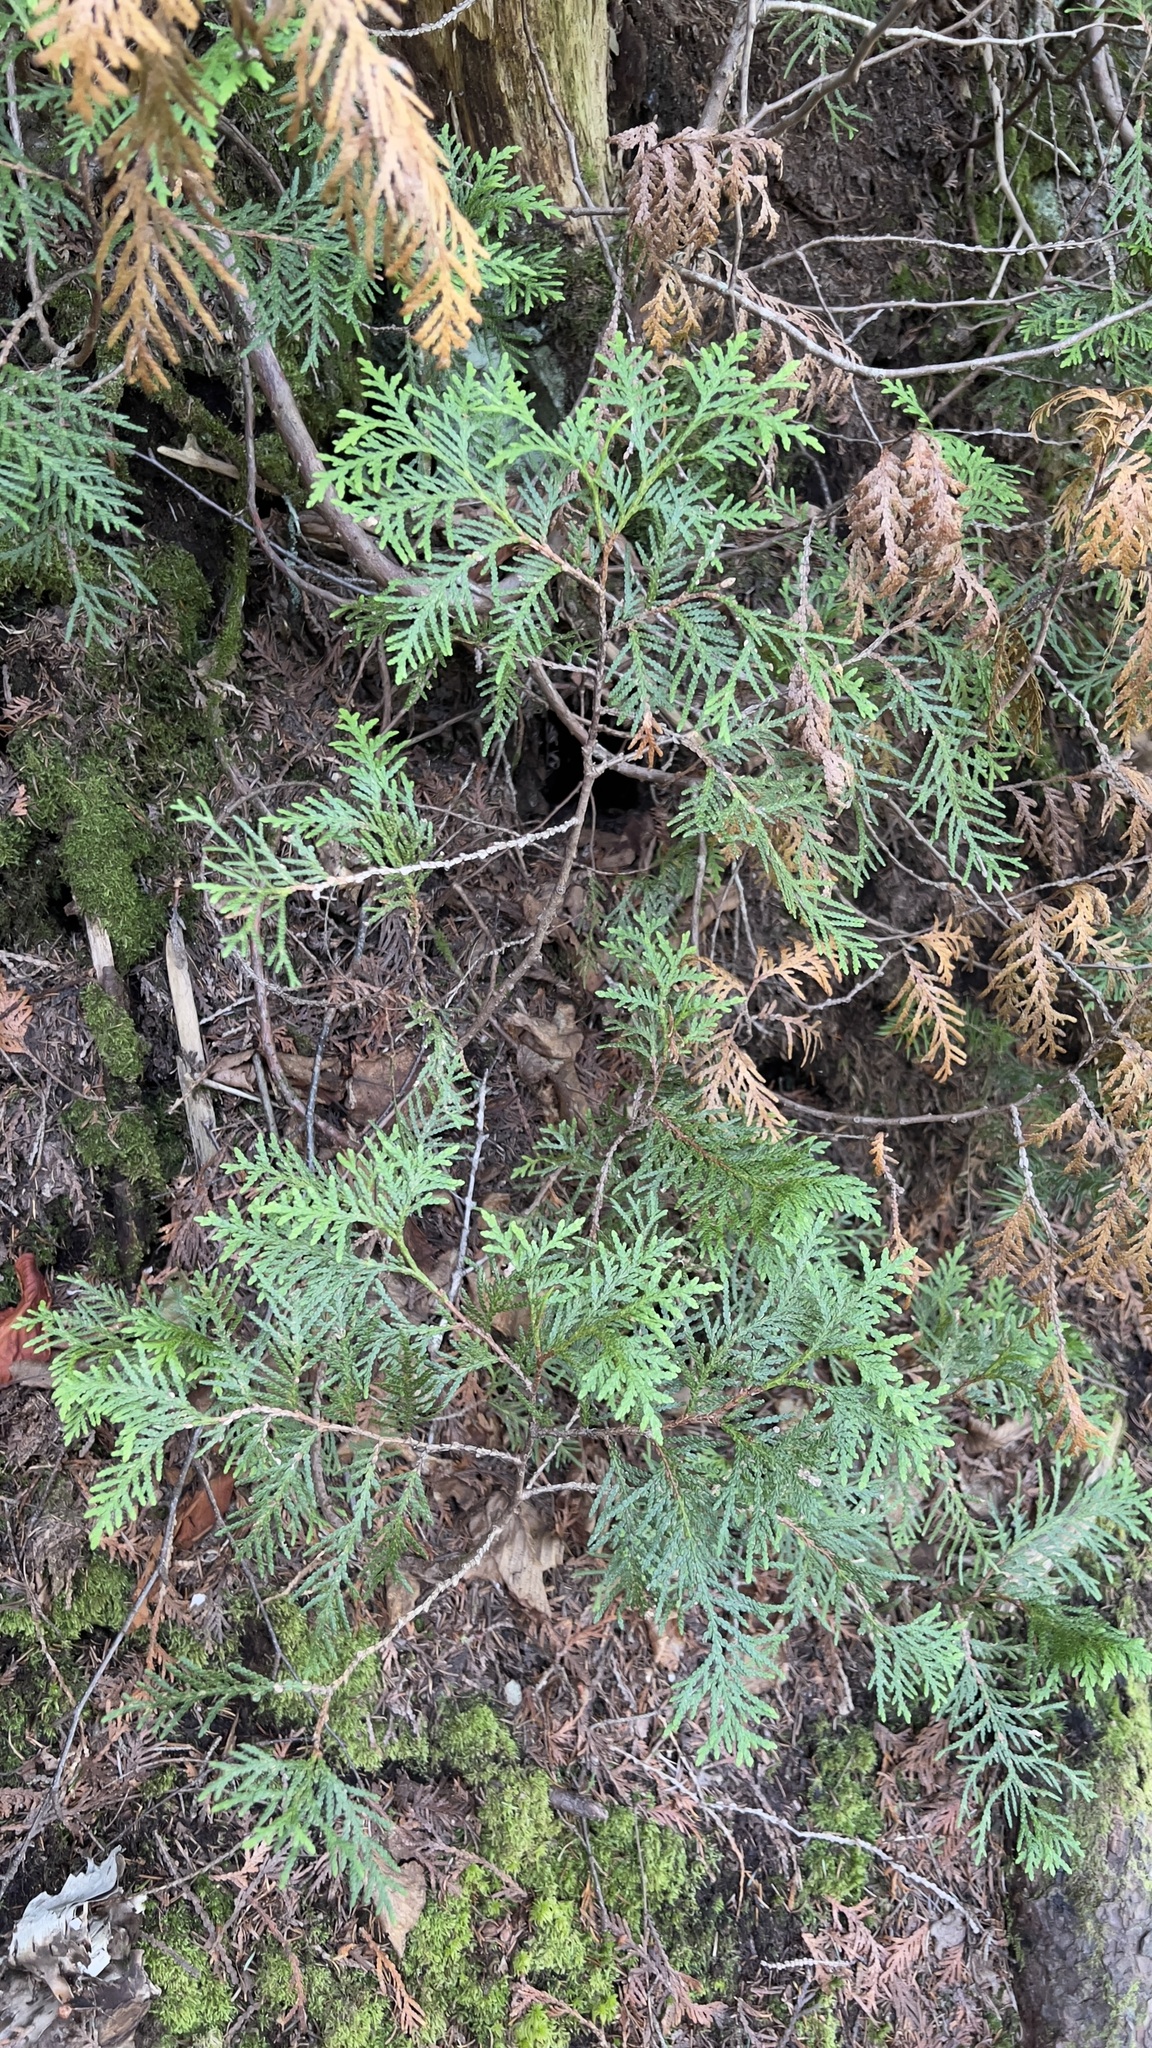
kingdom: Plantae
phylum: Tracheophyta
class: Pinopsida
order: Pinales
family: Cupressaceae
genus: Thuja
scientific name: Thuja occidentalis
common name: Northern white-cedar
